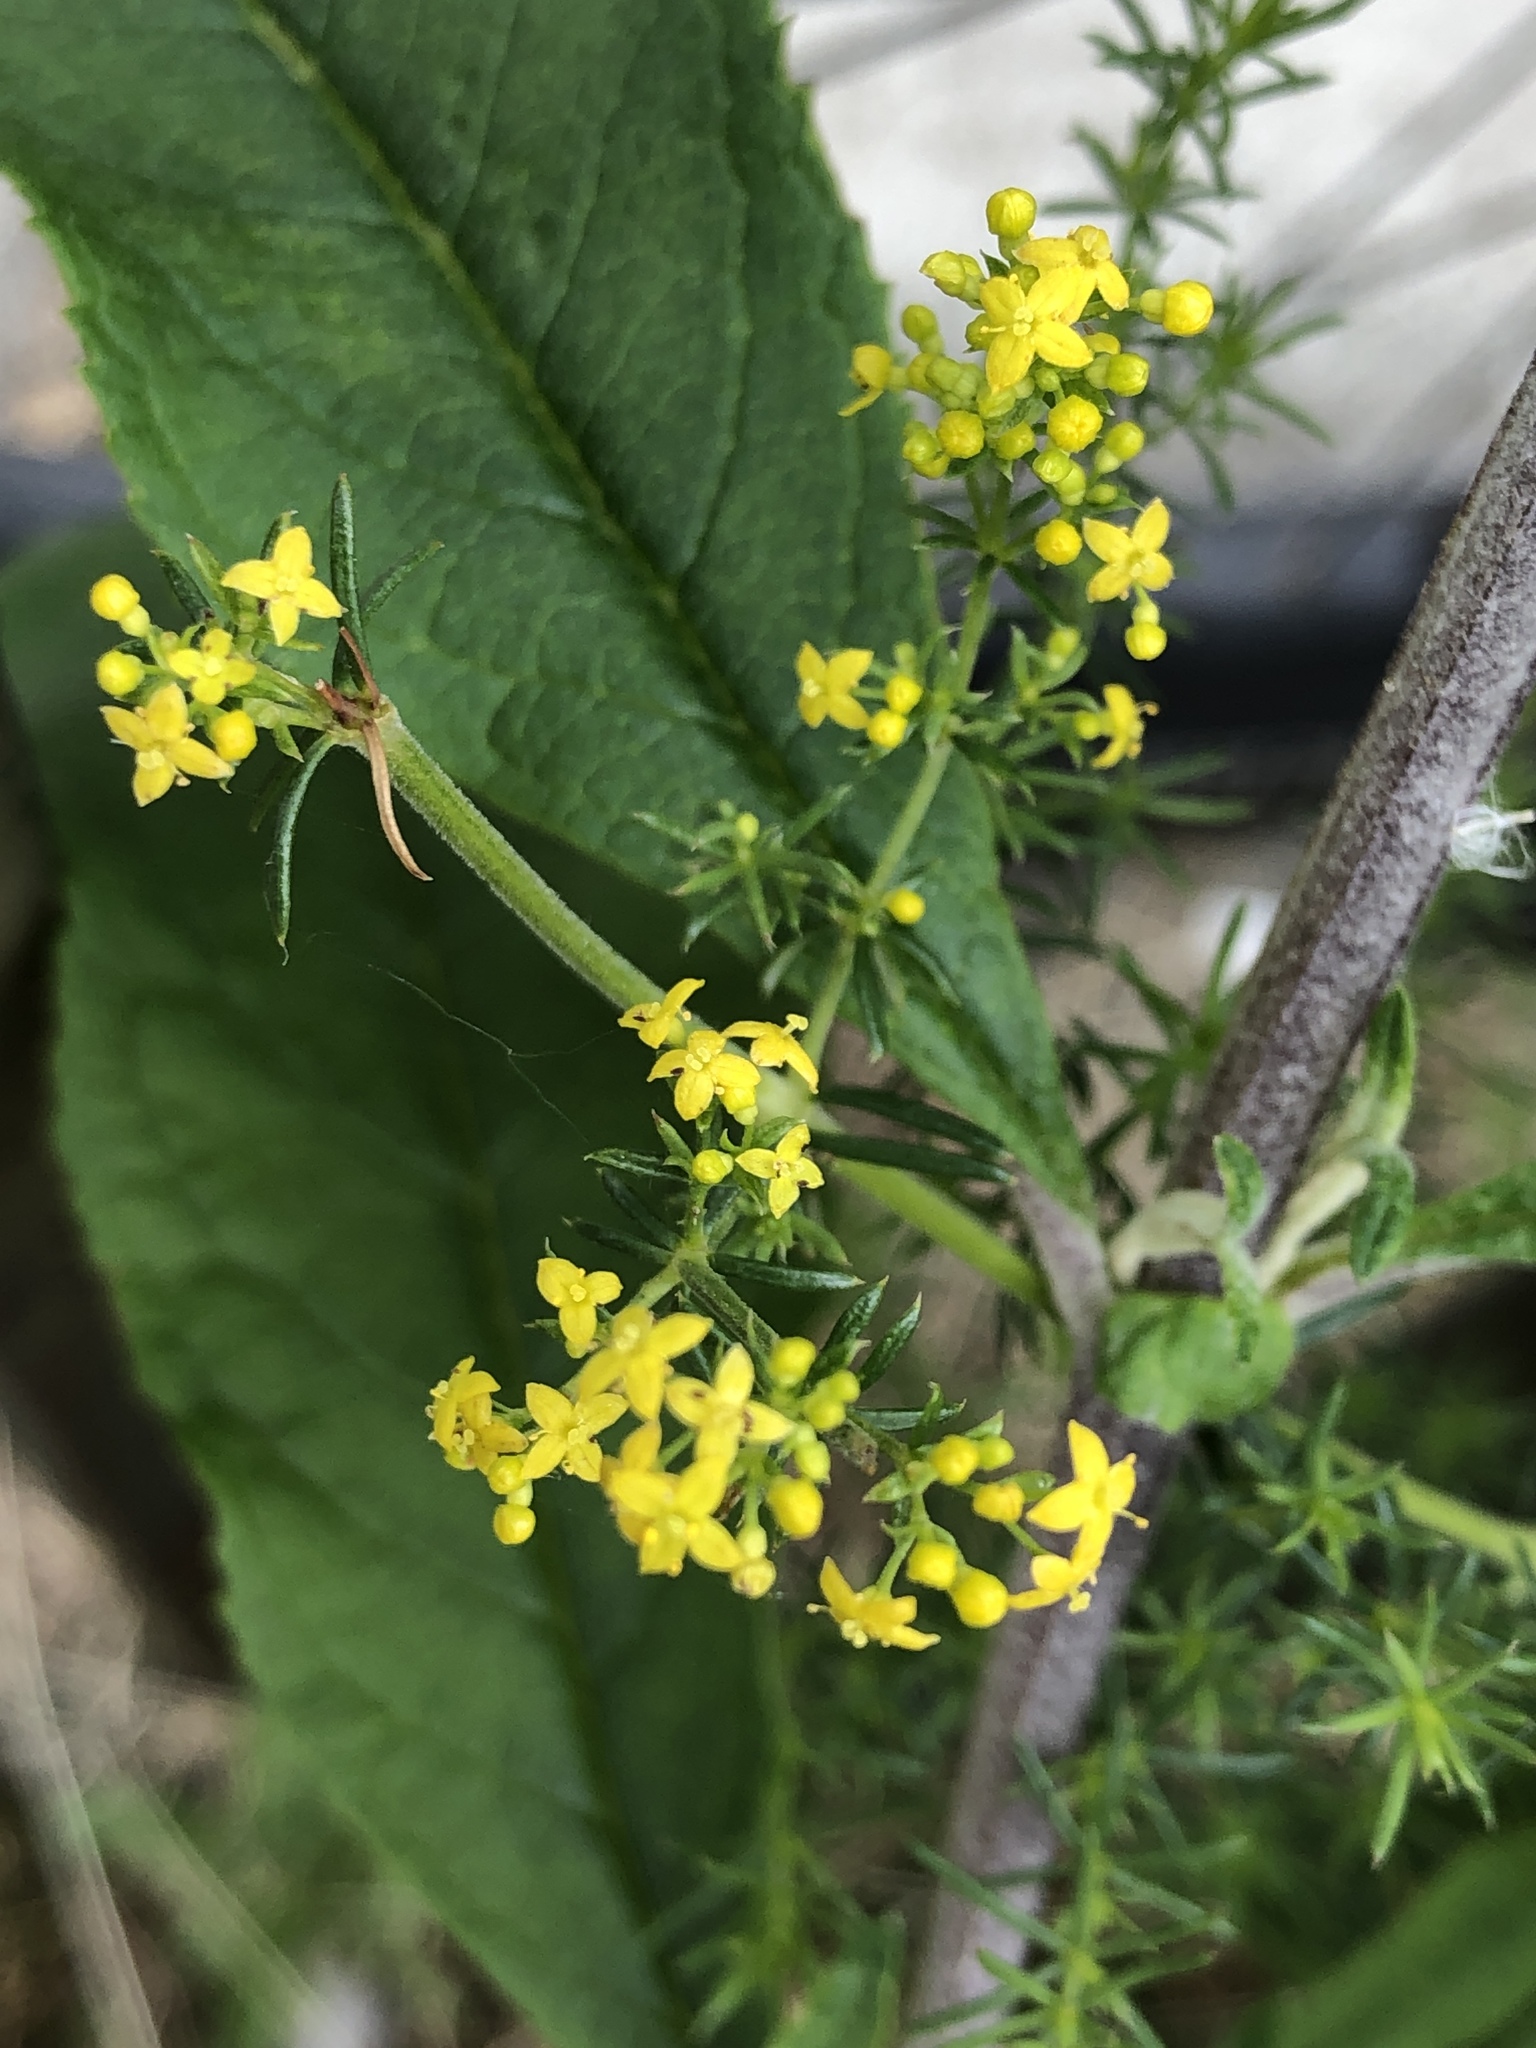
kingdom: Plantae
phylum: Tracheophyta
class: Magnoliopsida
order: Gentianales
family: Rubiaceae
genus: Galium
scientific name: Galium verum
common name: Lady's bedstraw
